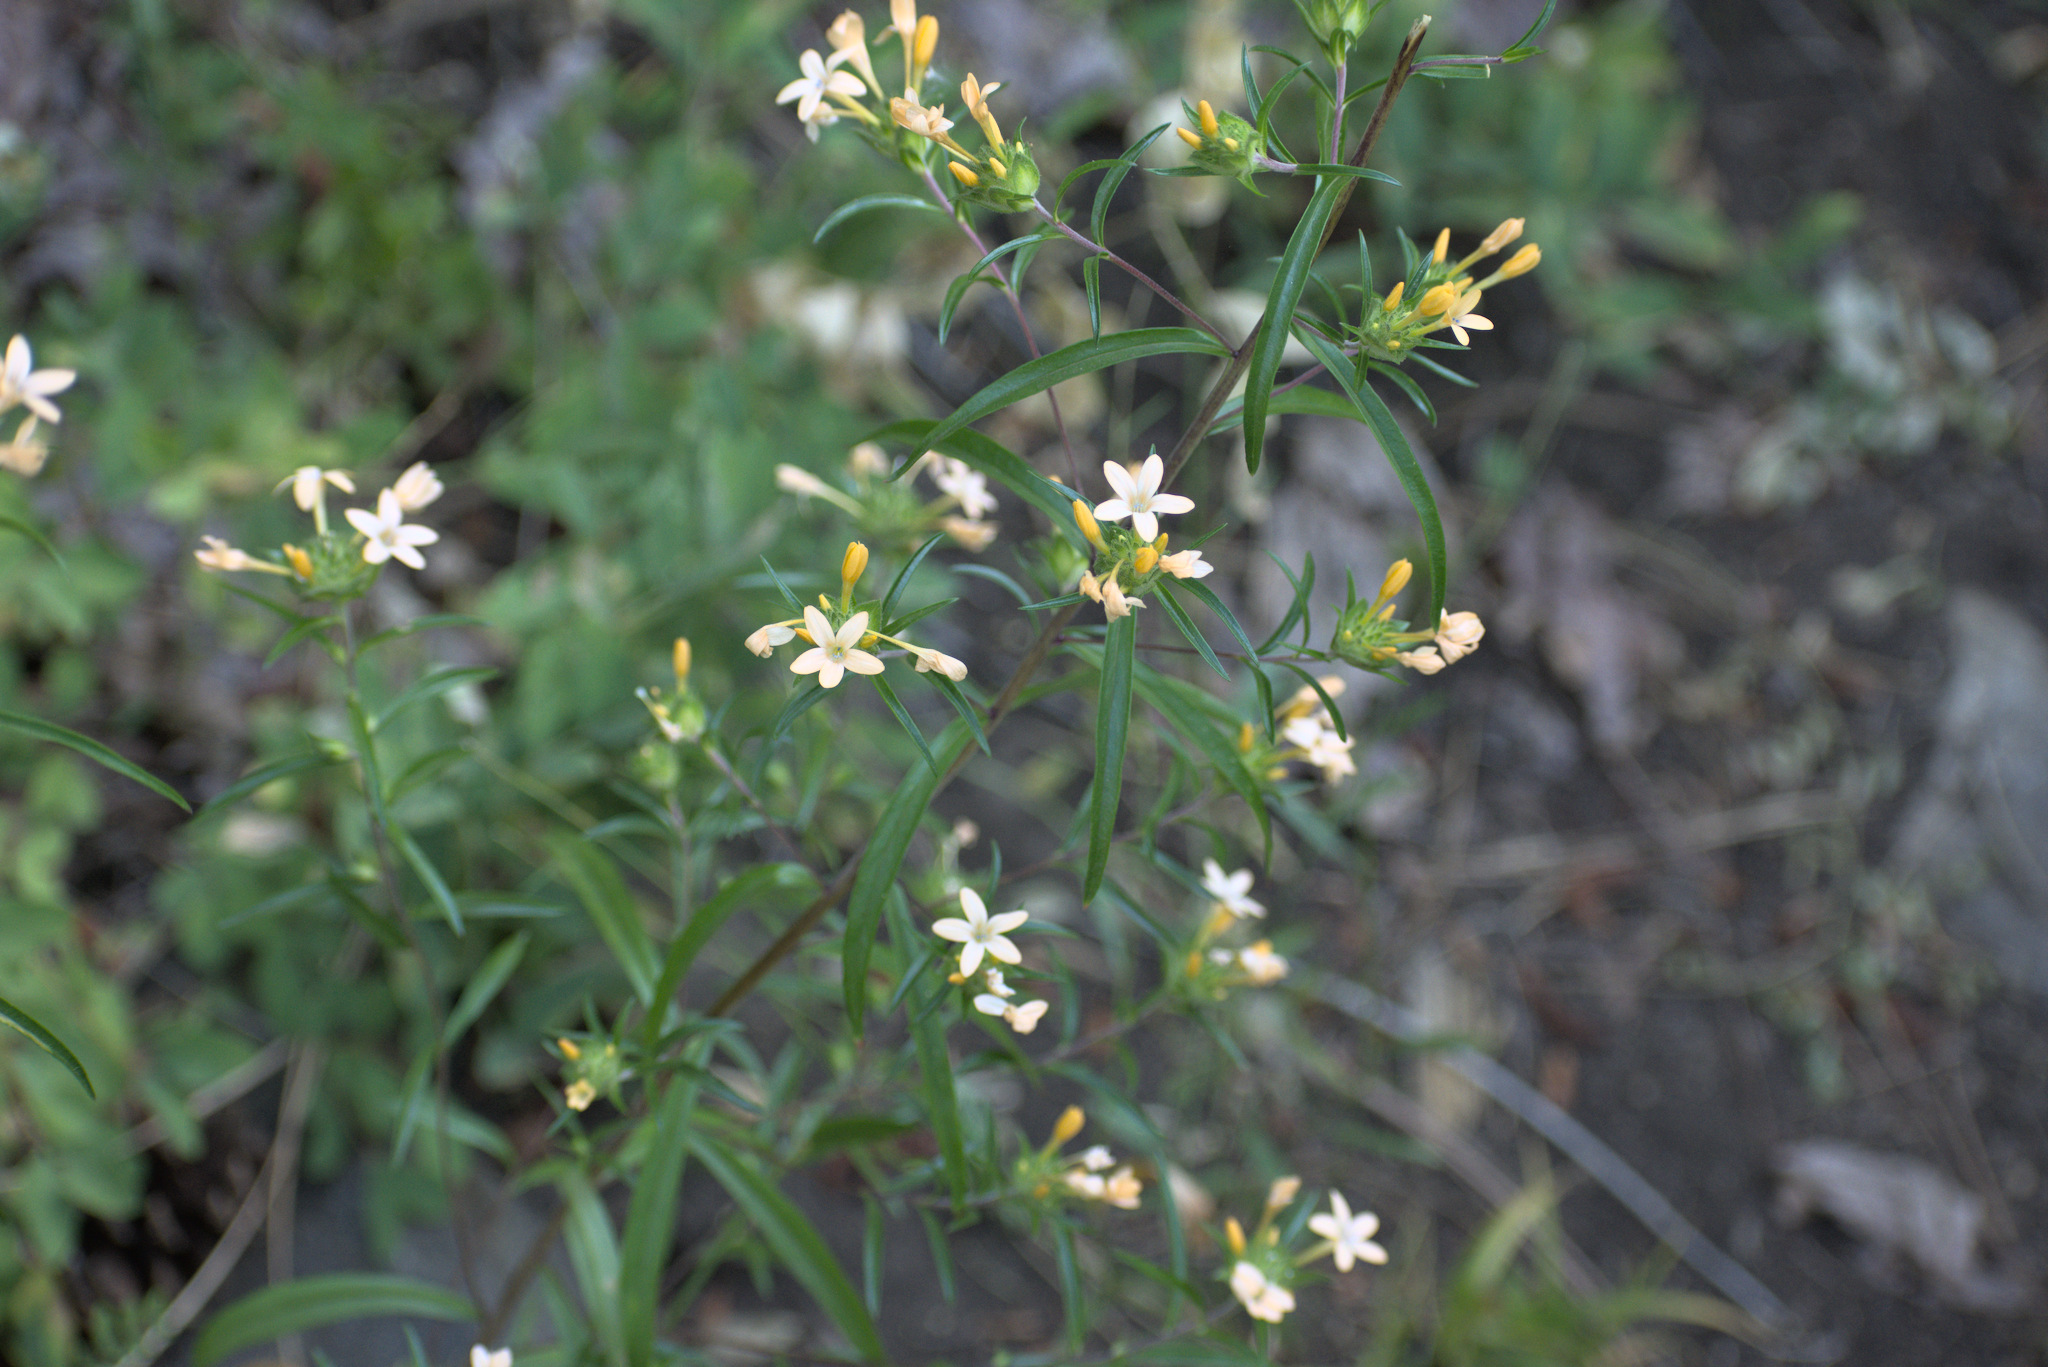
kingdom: Plantae
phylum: Tracheophyta
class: Magnoliopsida
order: Ericales
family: Polemoniaceae
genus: Collomia
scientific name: Collomia grandiflora
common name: California strawflower
